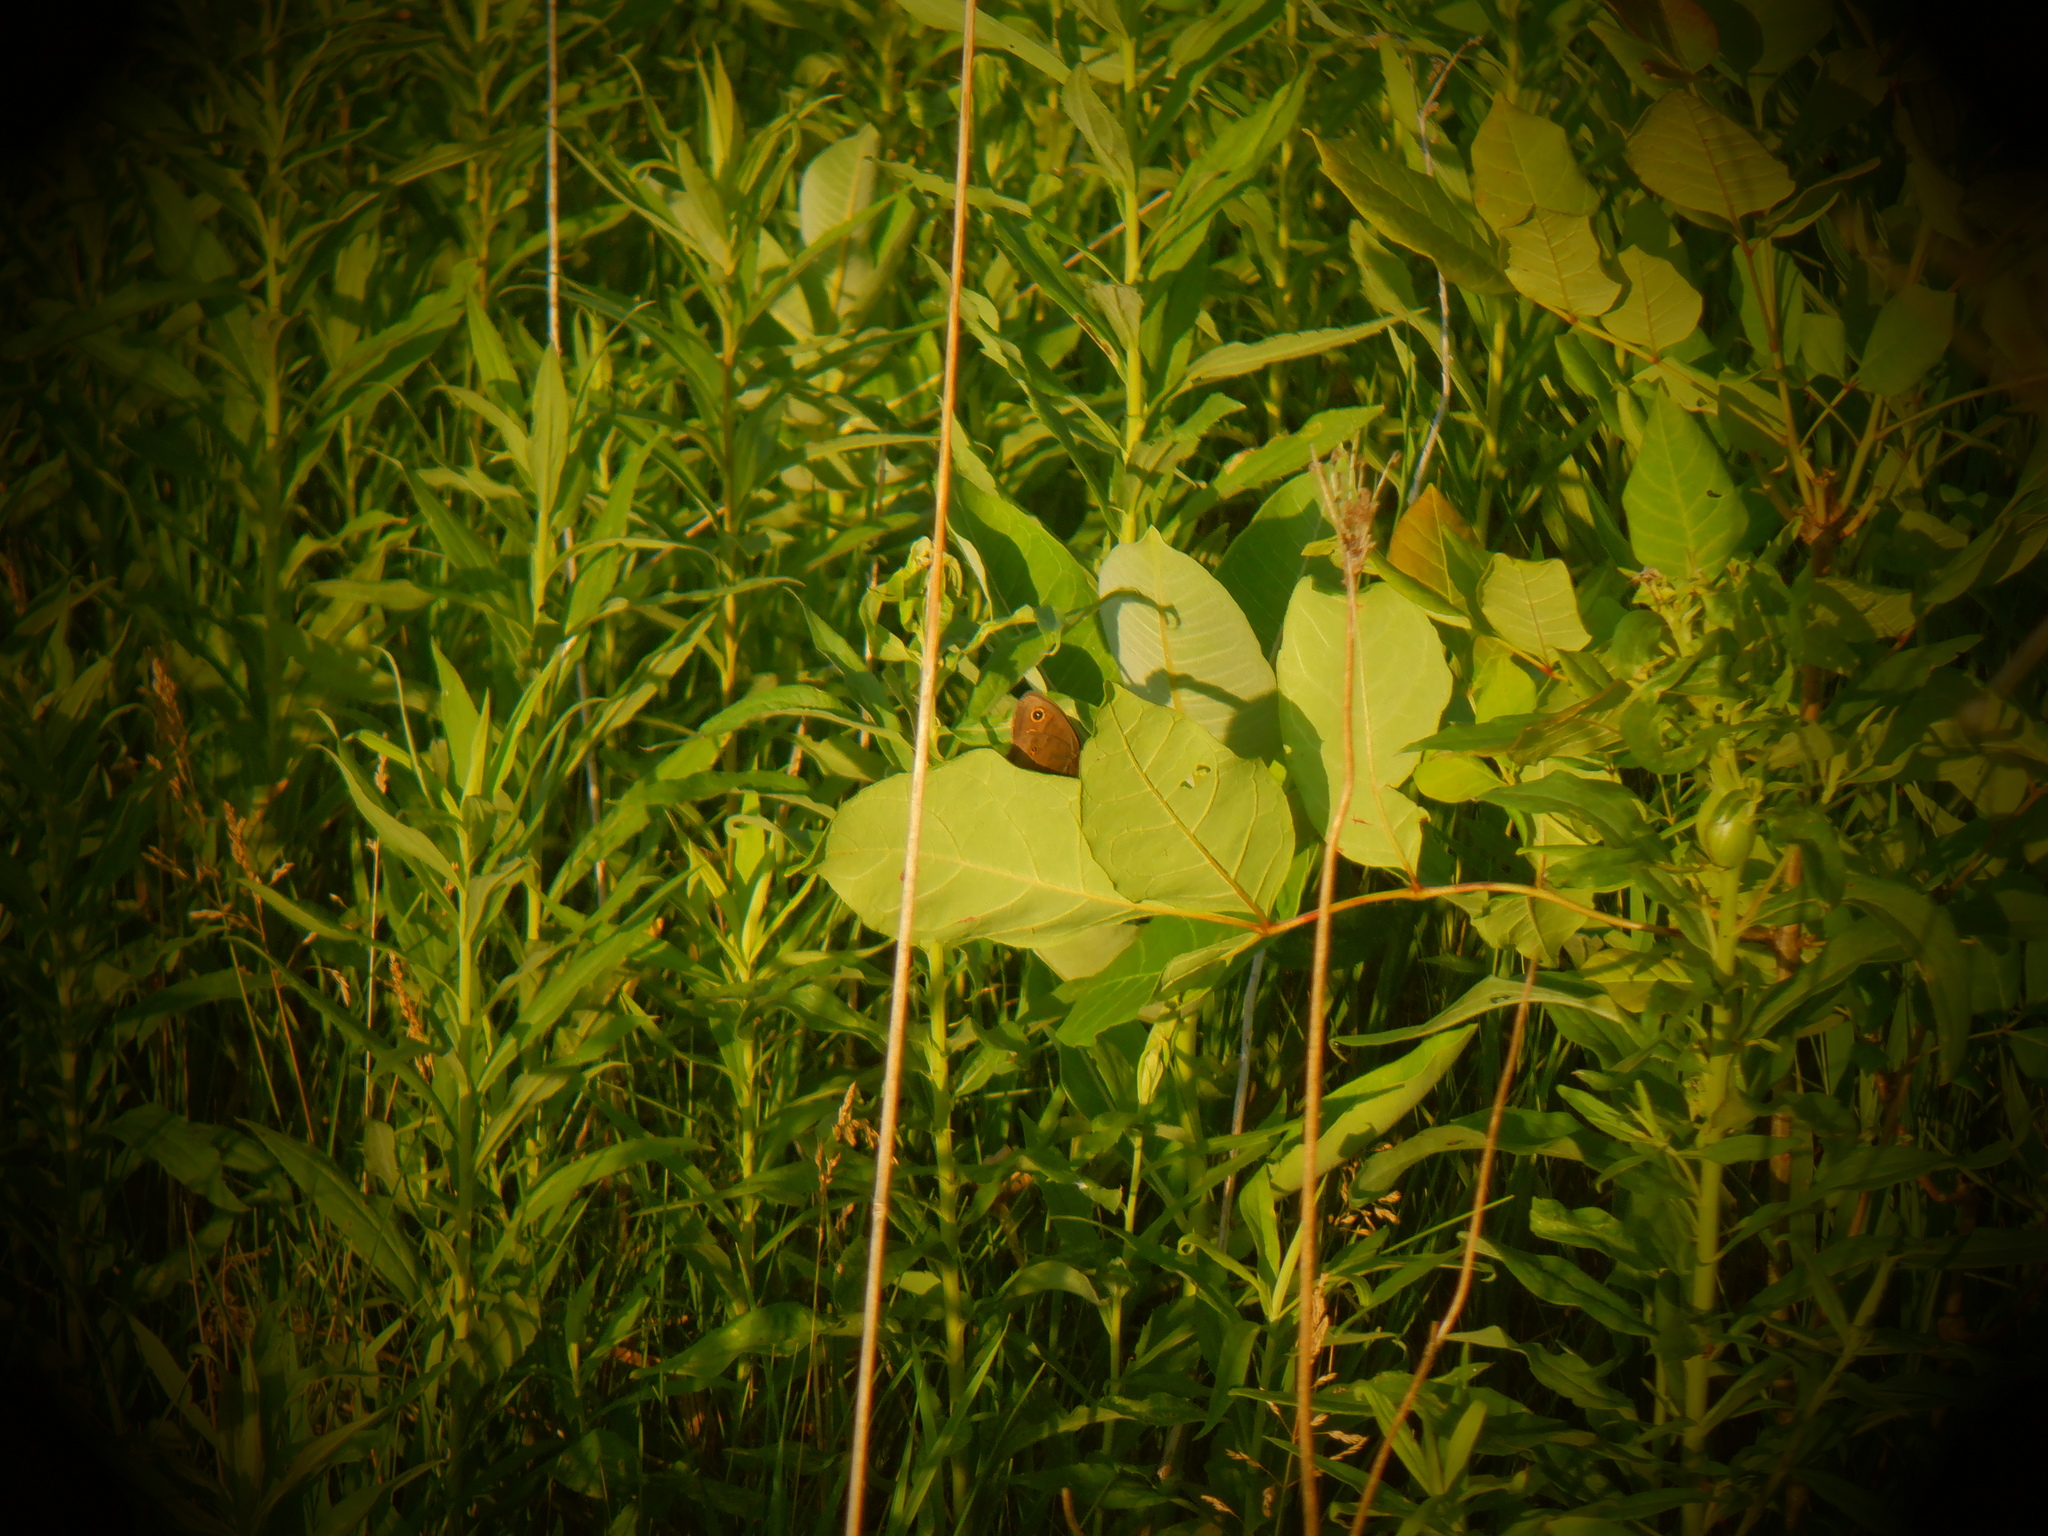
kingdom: Animalia
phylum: Arthropoda
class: Insecta
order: Lepidoptera
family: Nymphalidae
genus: Cercyonis
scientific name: Cercyonis pegala
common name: Common wood-nymph
